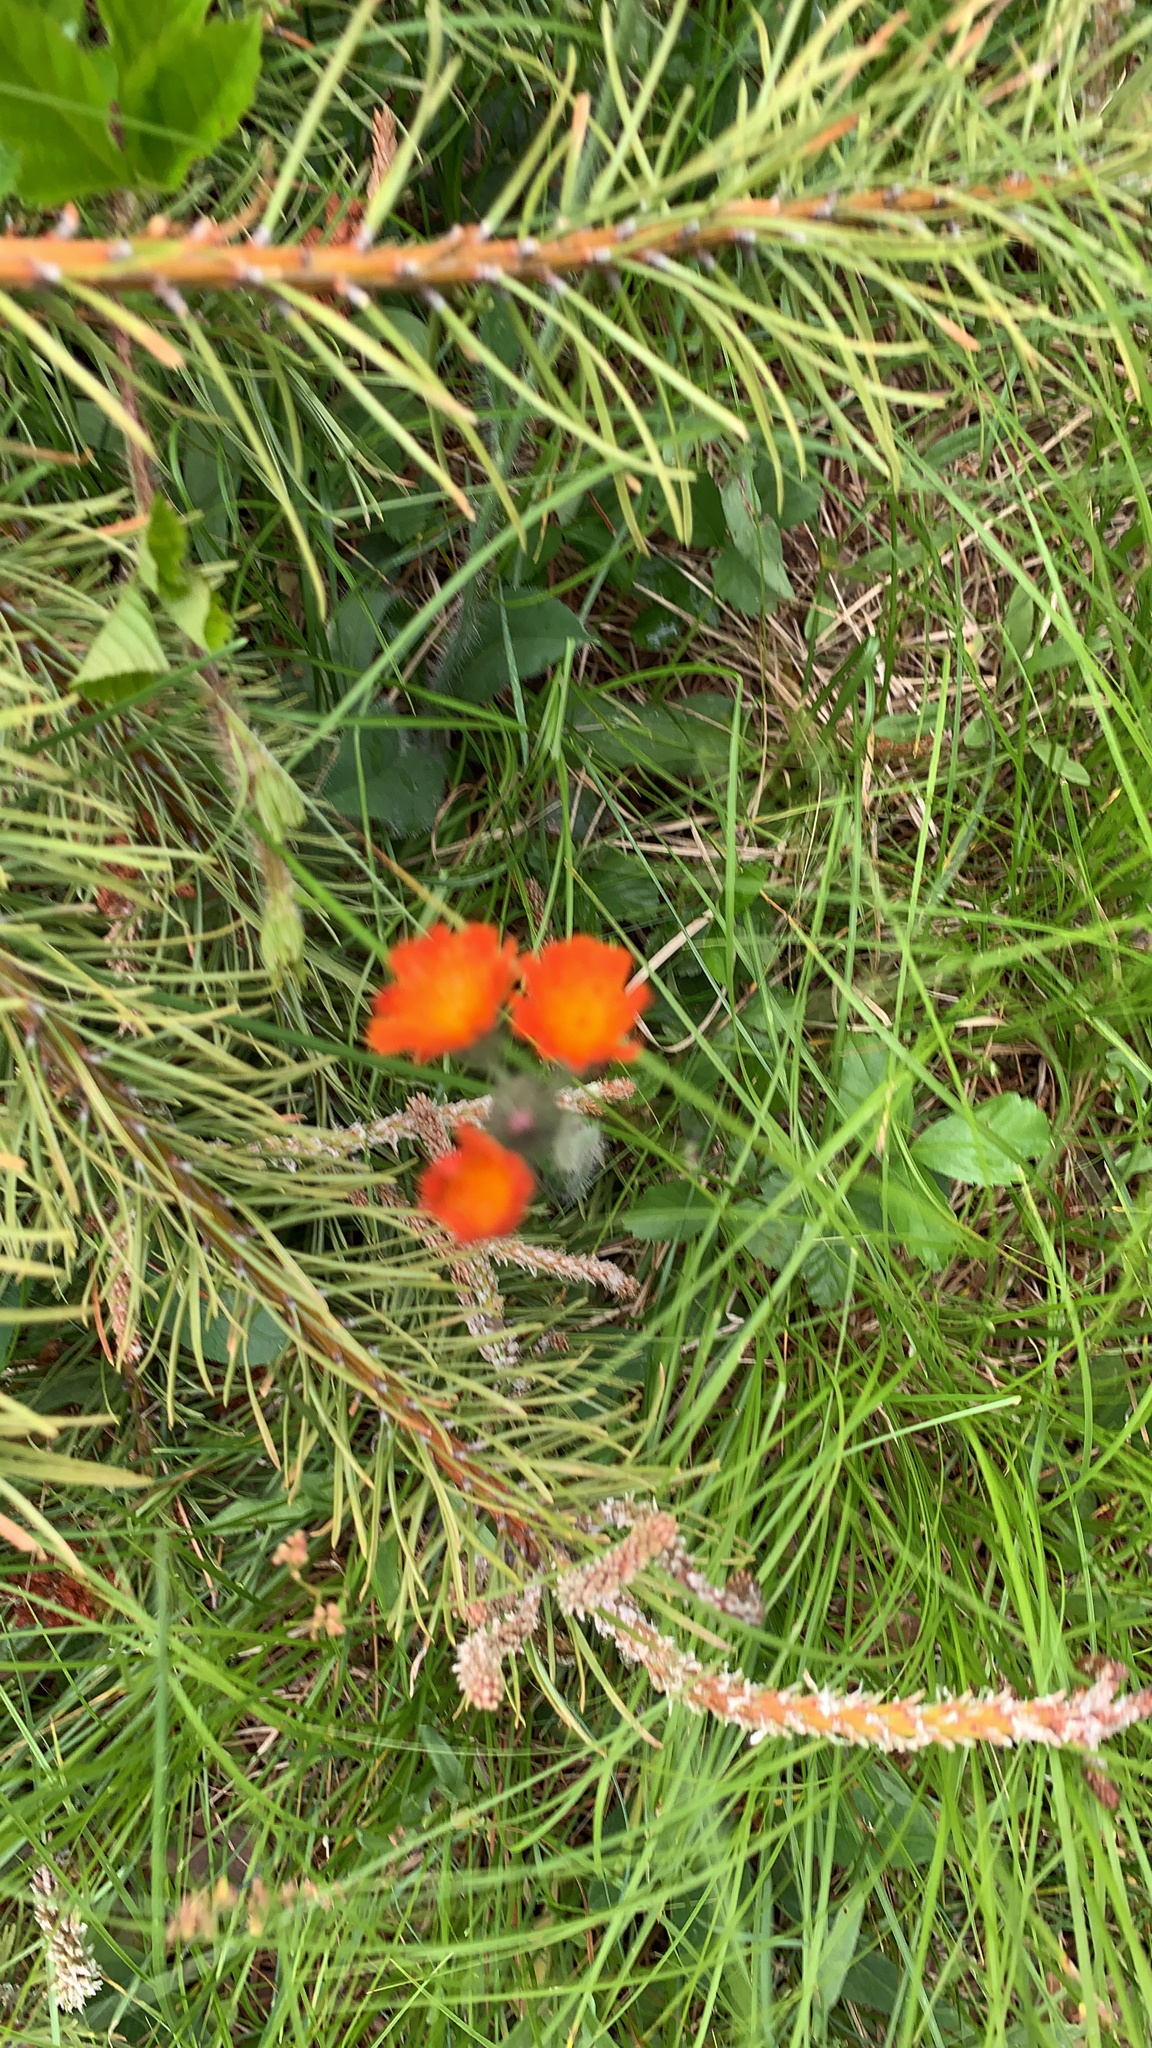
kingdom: Plantae
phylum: Tracheophyta
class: Magnoliopsida
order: Asterales
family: Asteraceae
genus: Pilosella
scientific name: Pilosella aurantiaca
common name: Fox-and-cubs
